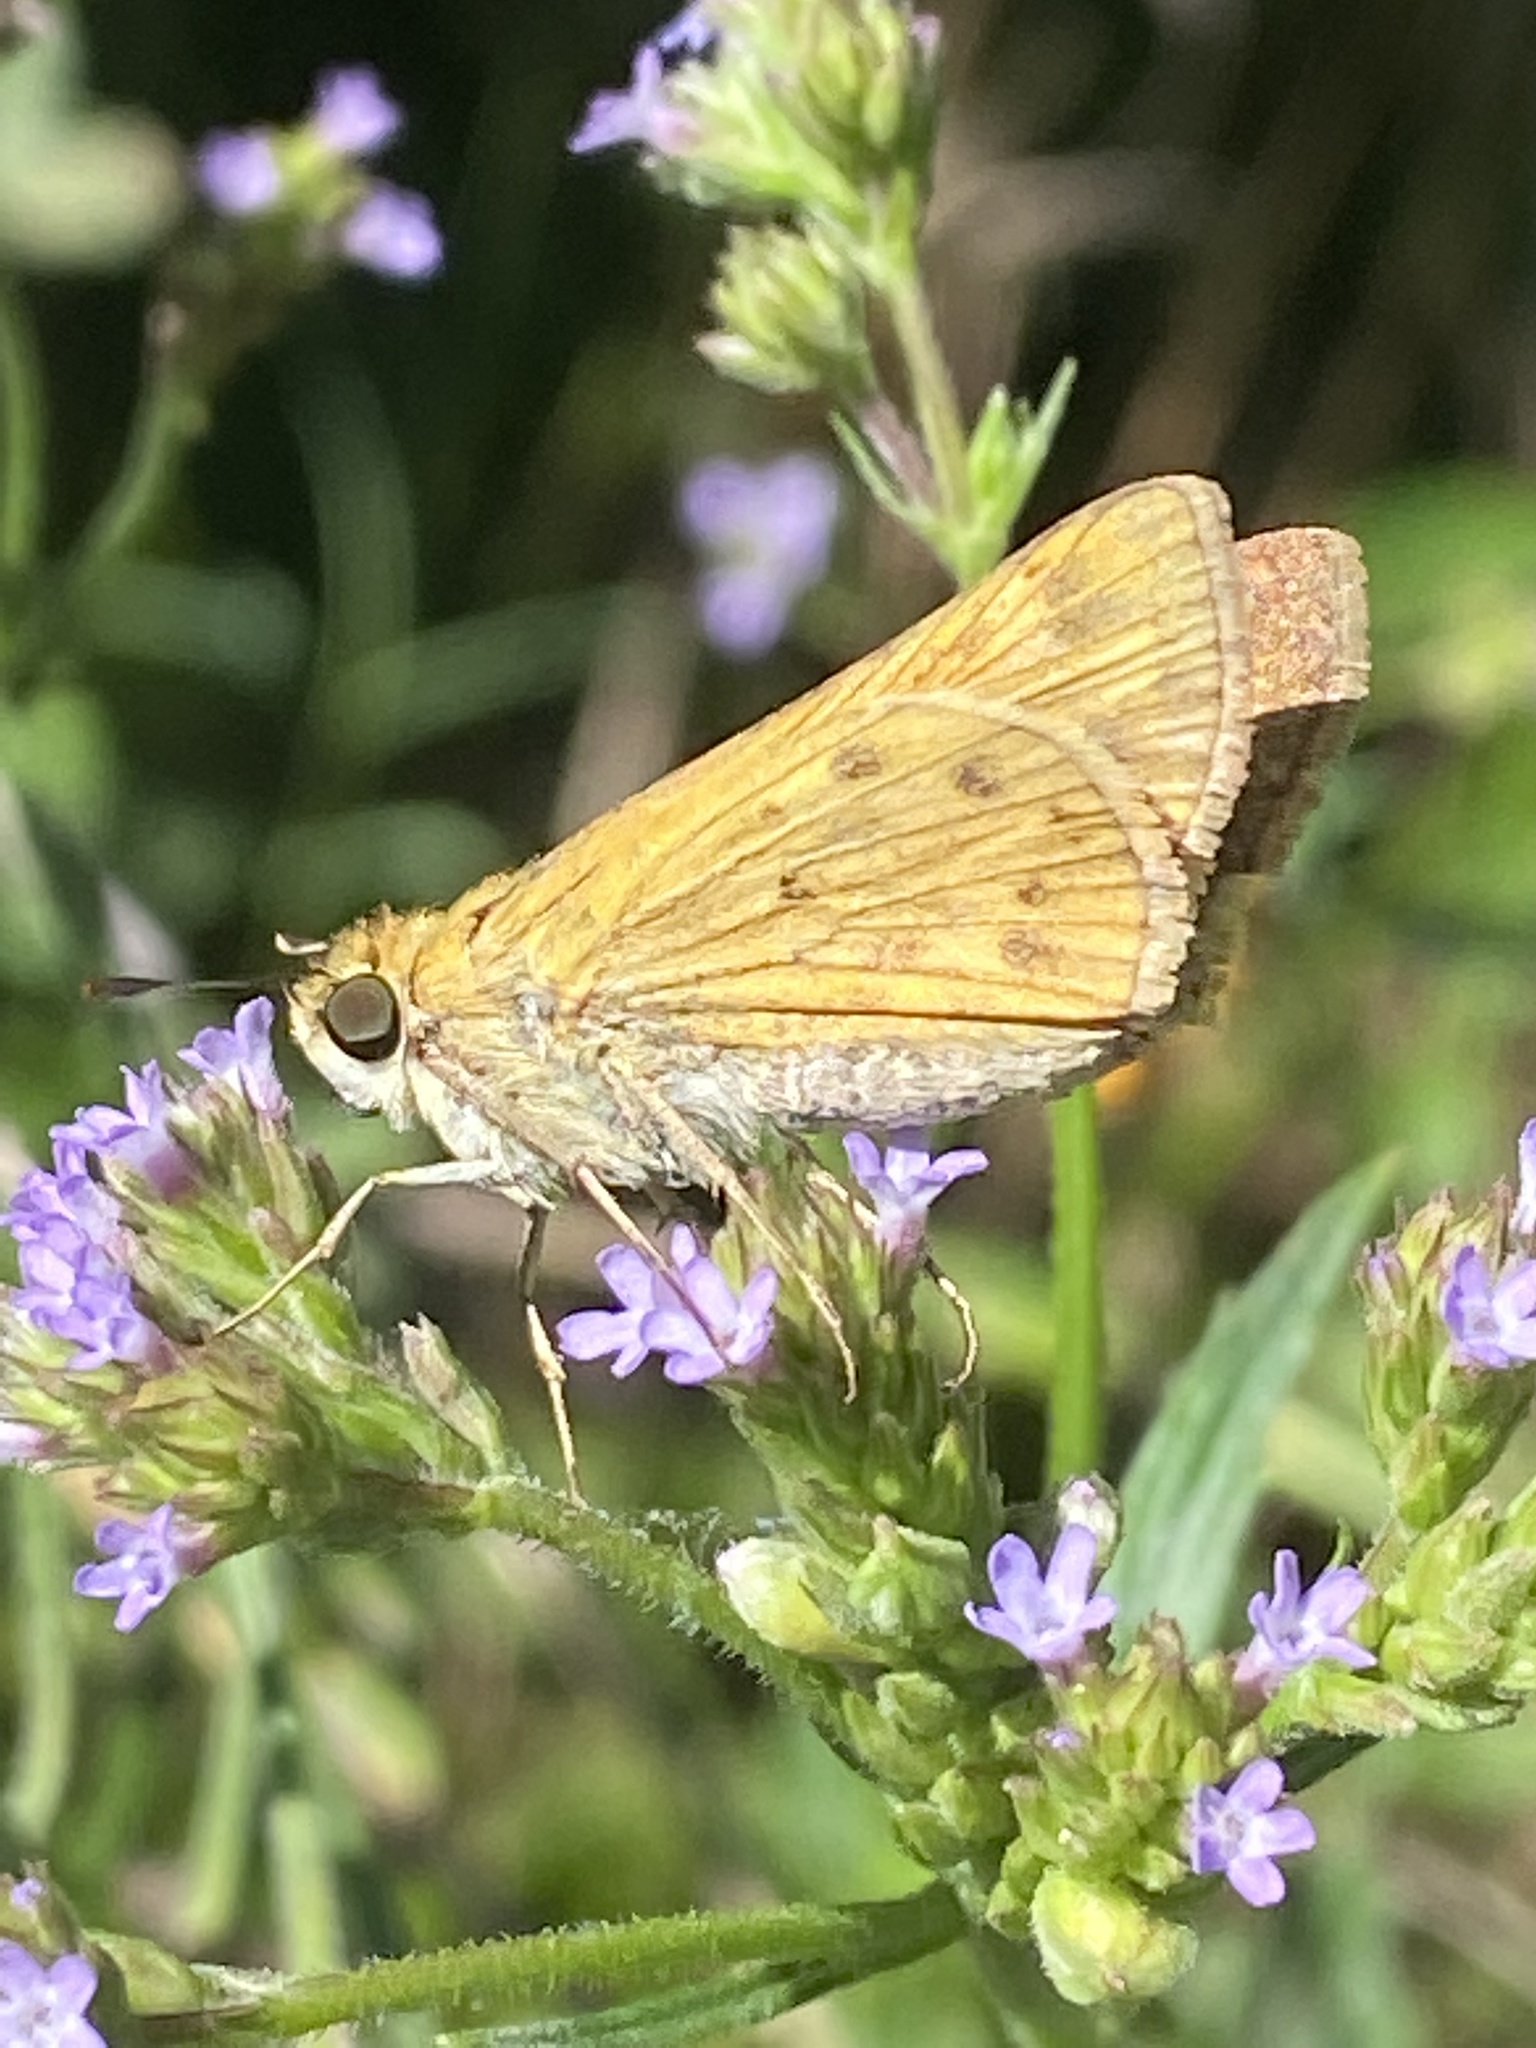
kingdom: Animalia
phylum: Arthropoda
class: Insecta
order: Lepidoptera
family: Hesperiidae
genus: Hylephila
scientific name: Hylephila phyleus
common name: Fiery skipper
